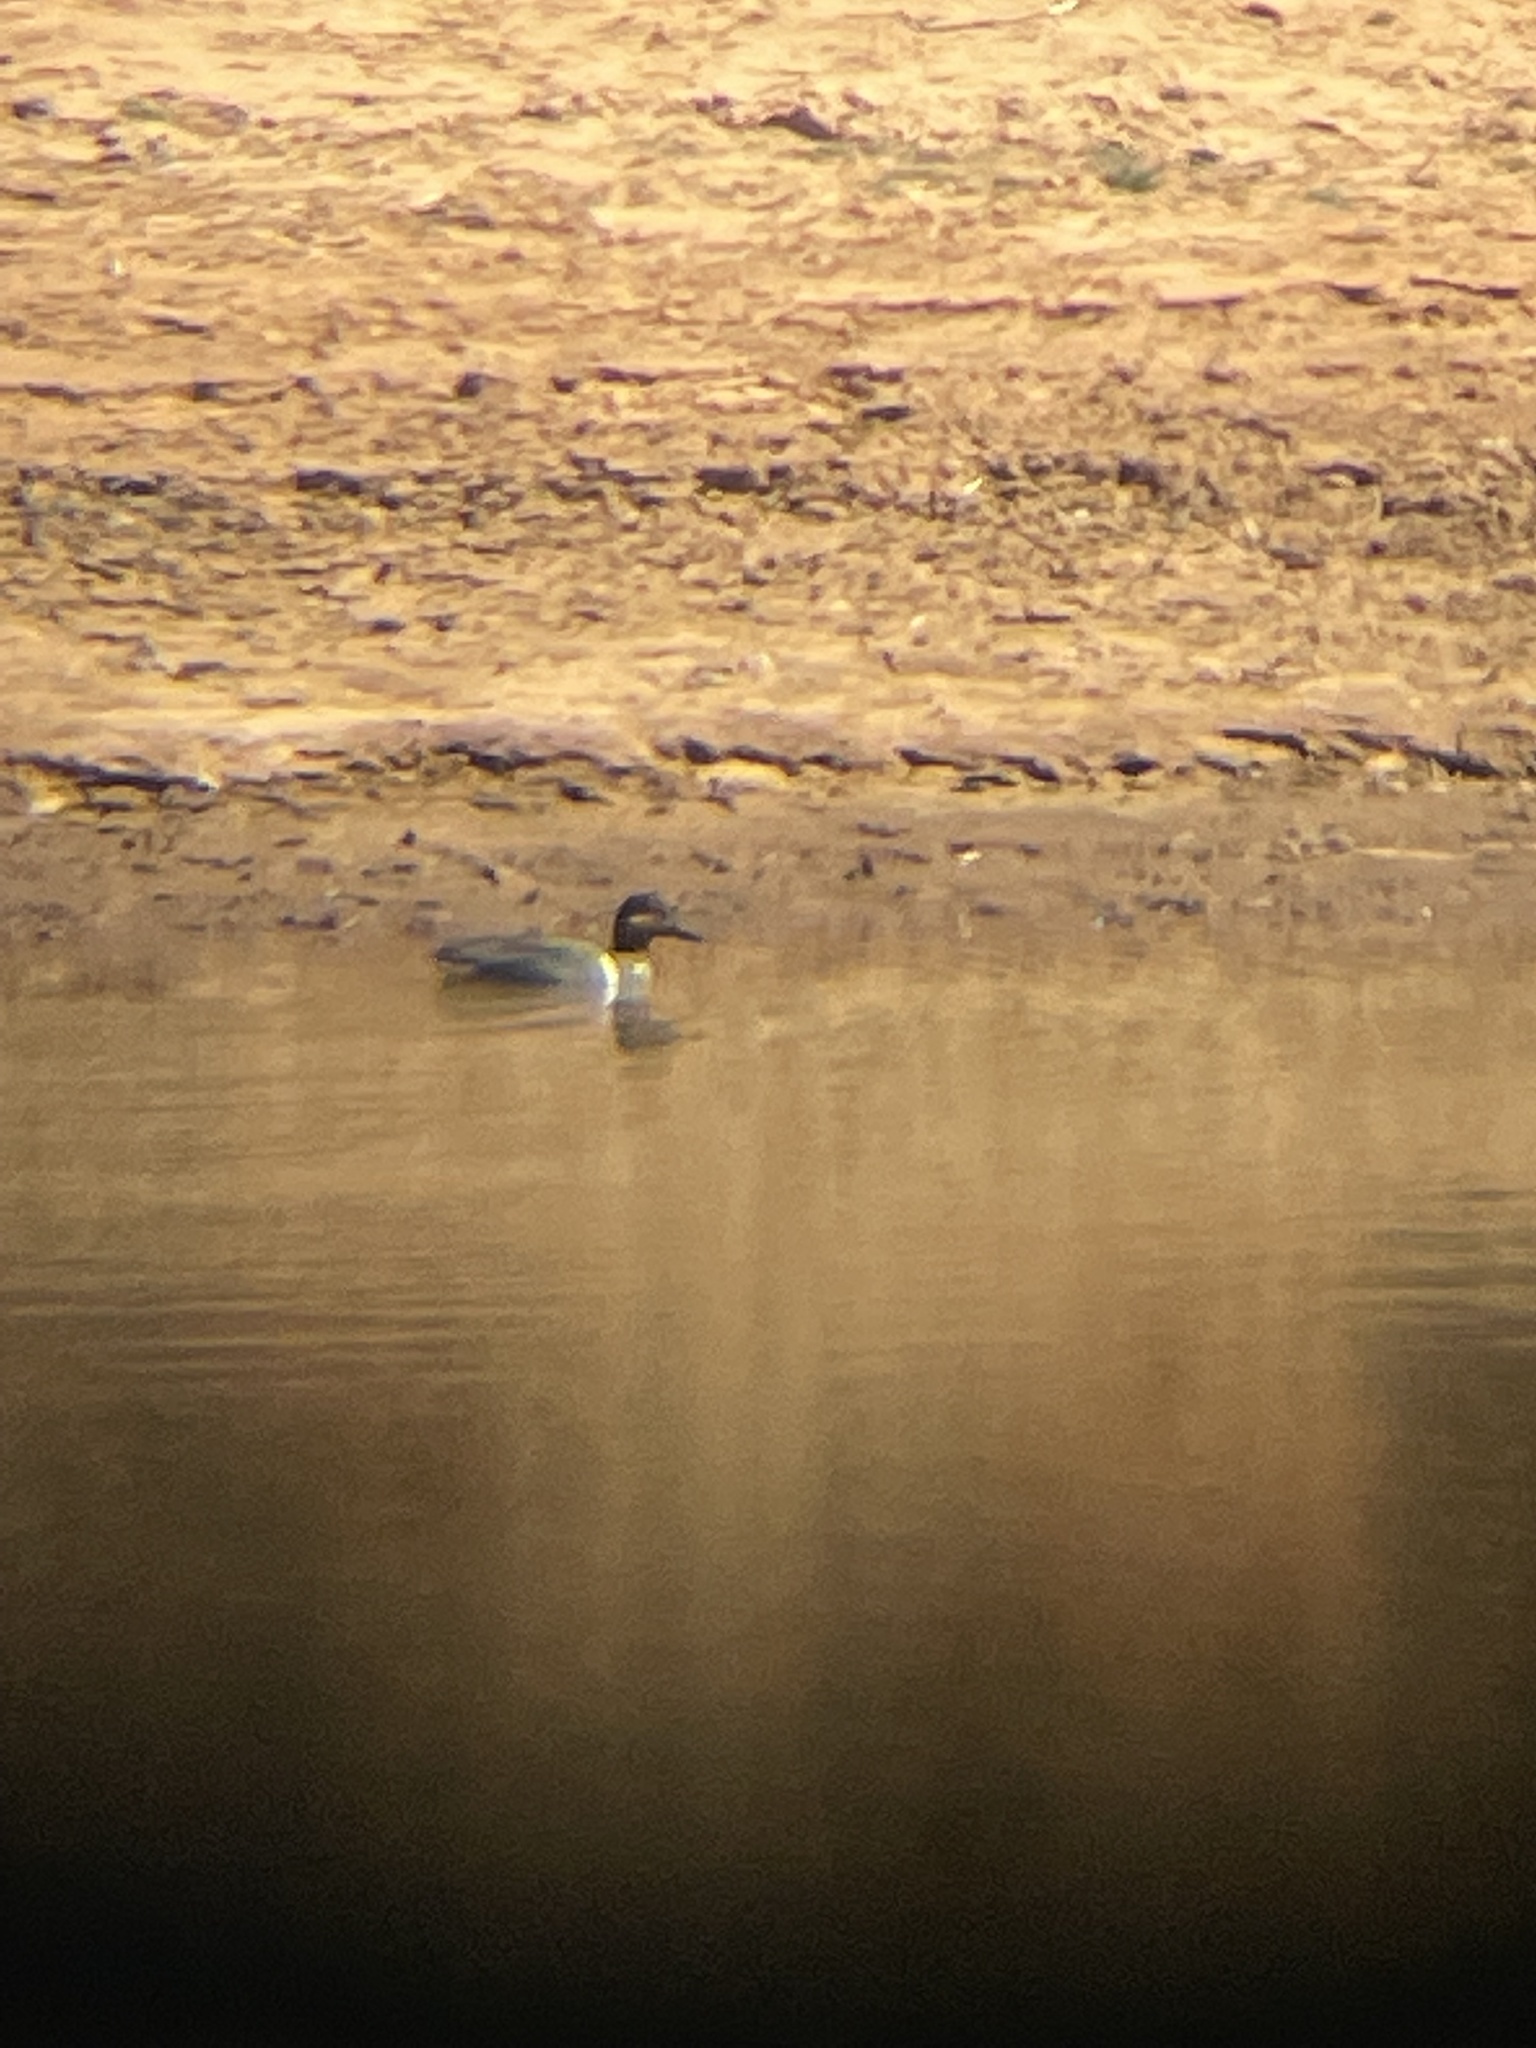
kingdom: Animalia
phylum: Chordata
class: Aves
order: Anseriformes
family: Anatidae
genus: Anas
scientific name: Anas crecca
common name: Eurasian teal
